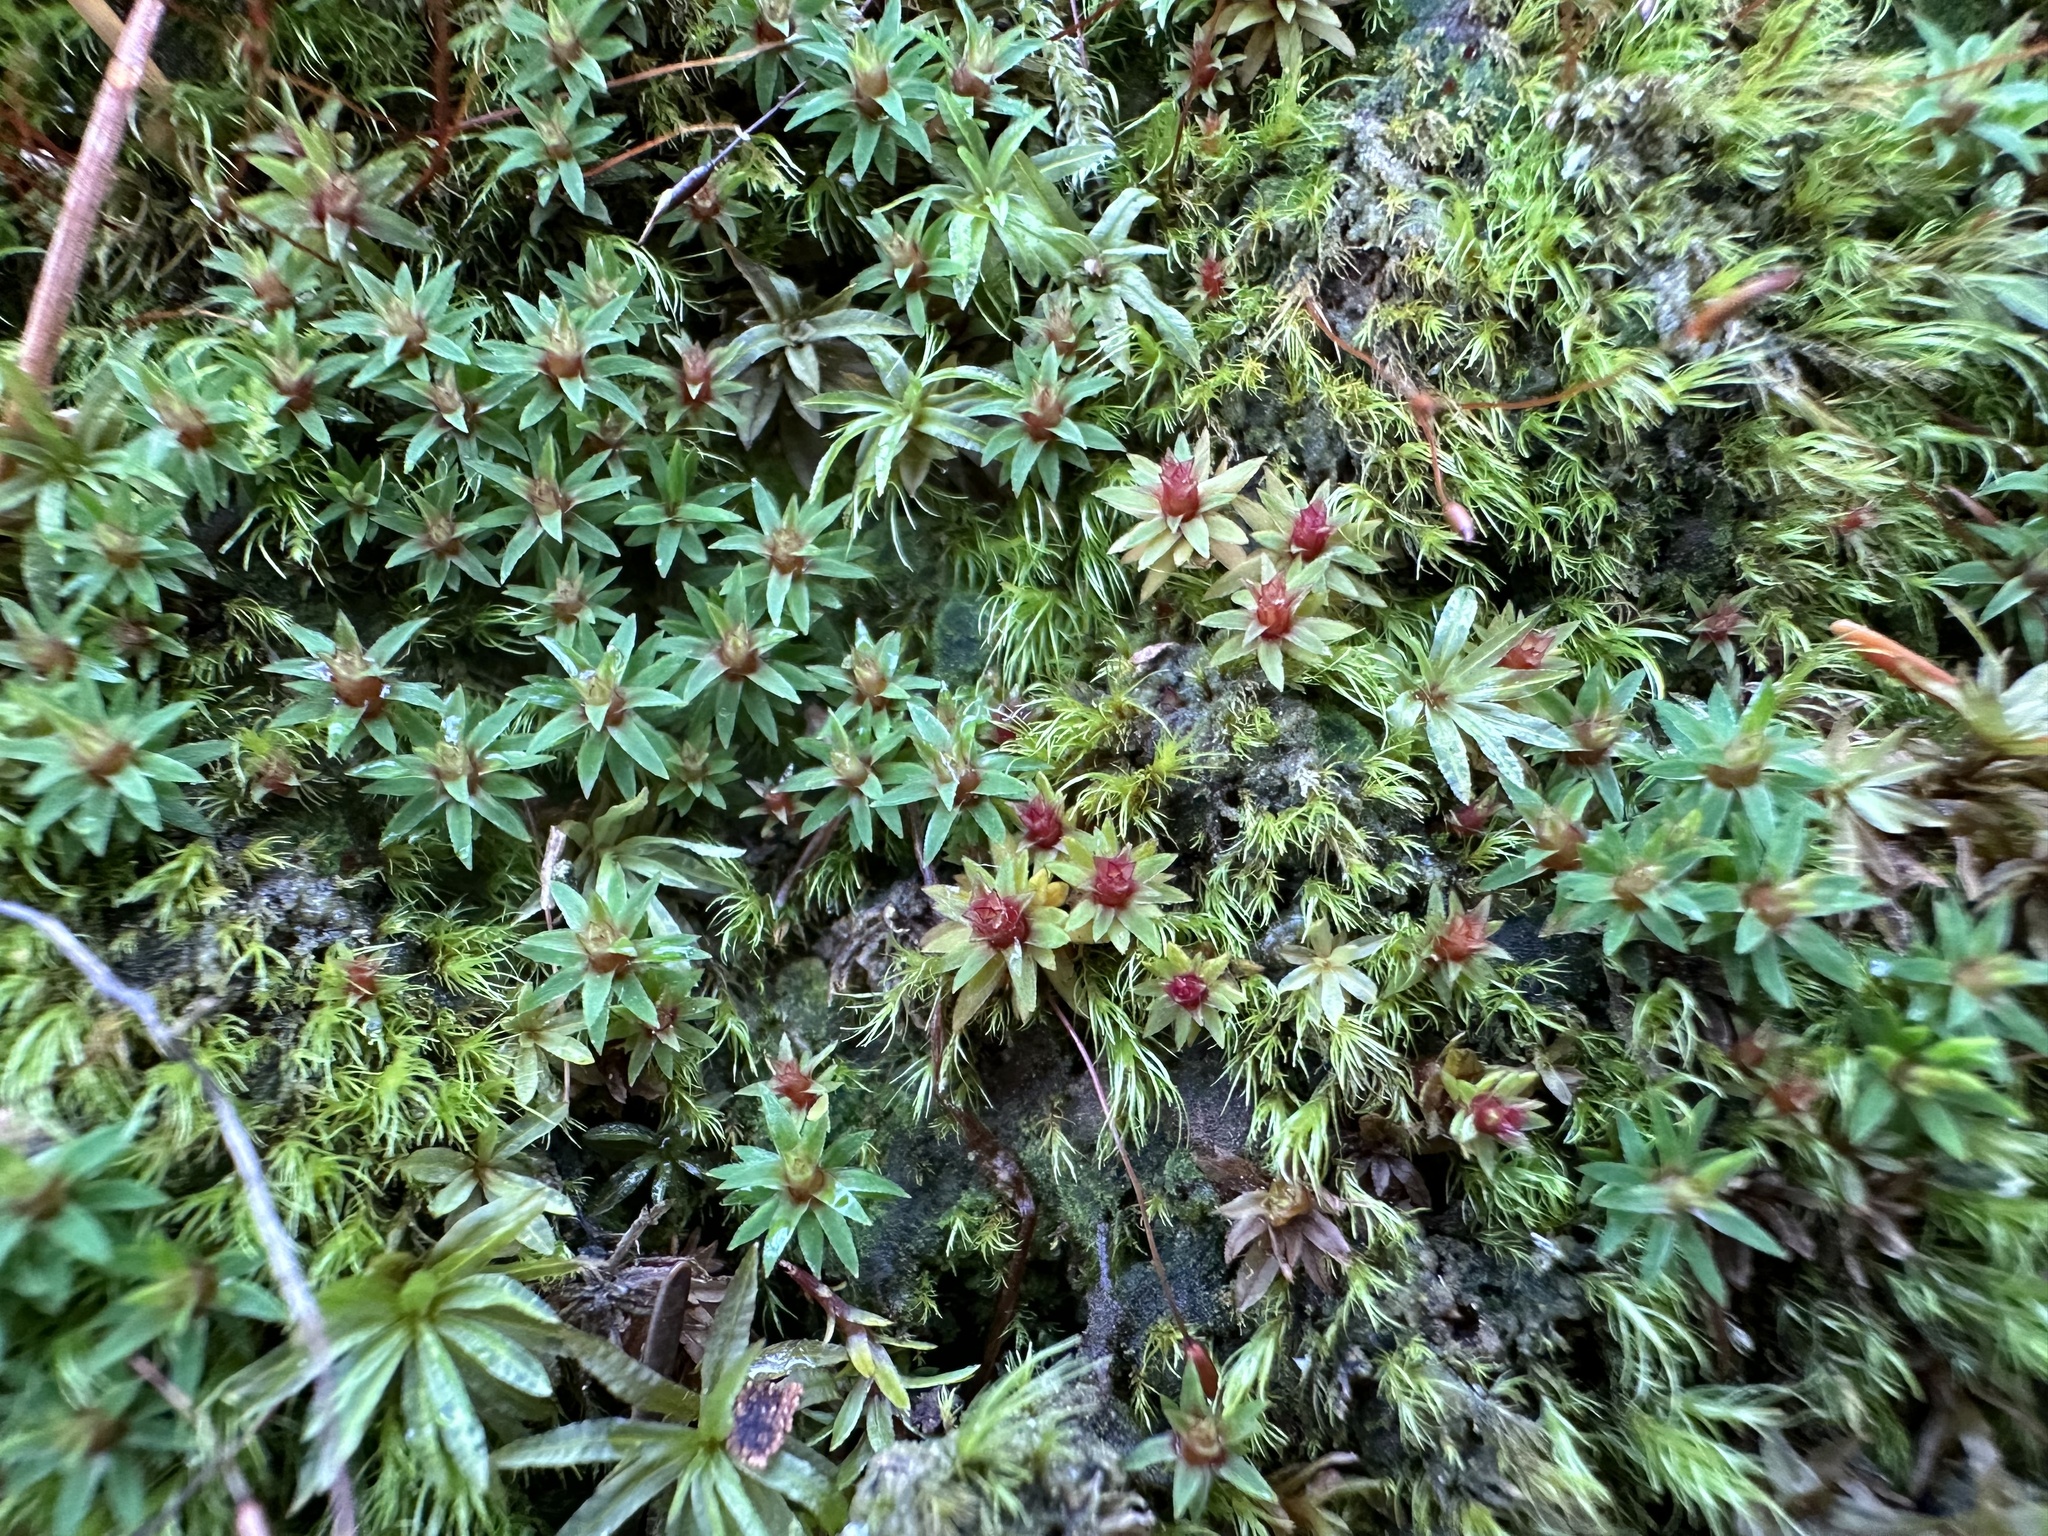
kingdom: Plantae
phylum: Bryophyta
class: Polytrichopsida
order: Polytrichales
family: Polytrichaceae
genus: Pogonatum
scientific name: Pogonatum aloides
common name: Aloe haircap
